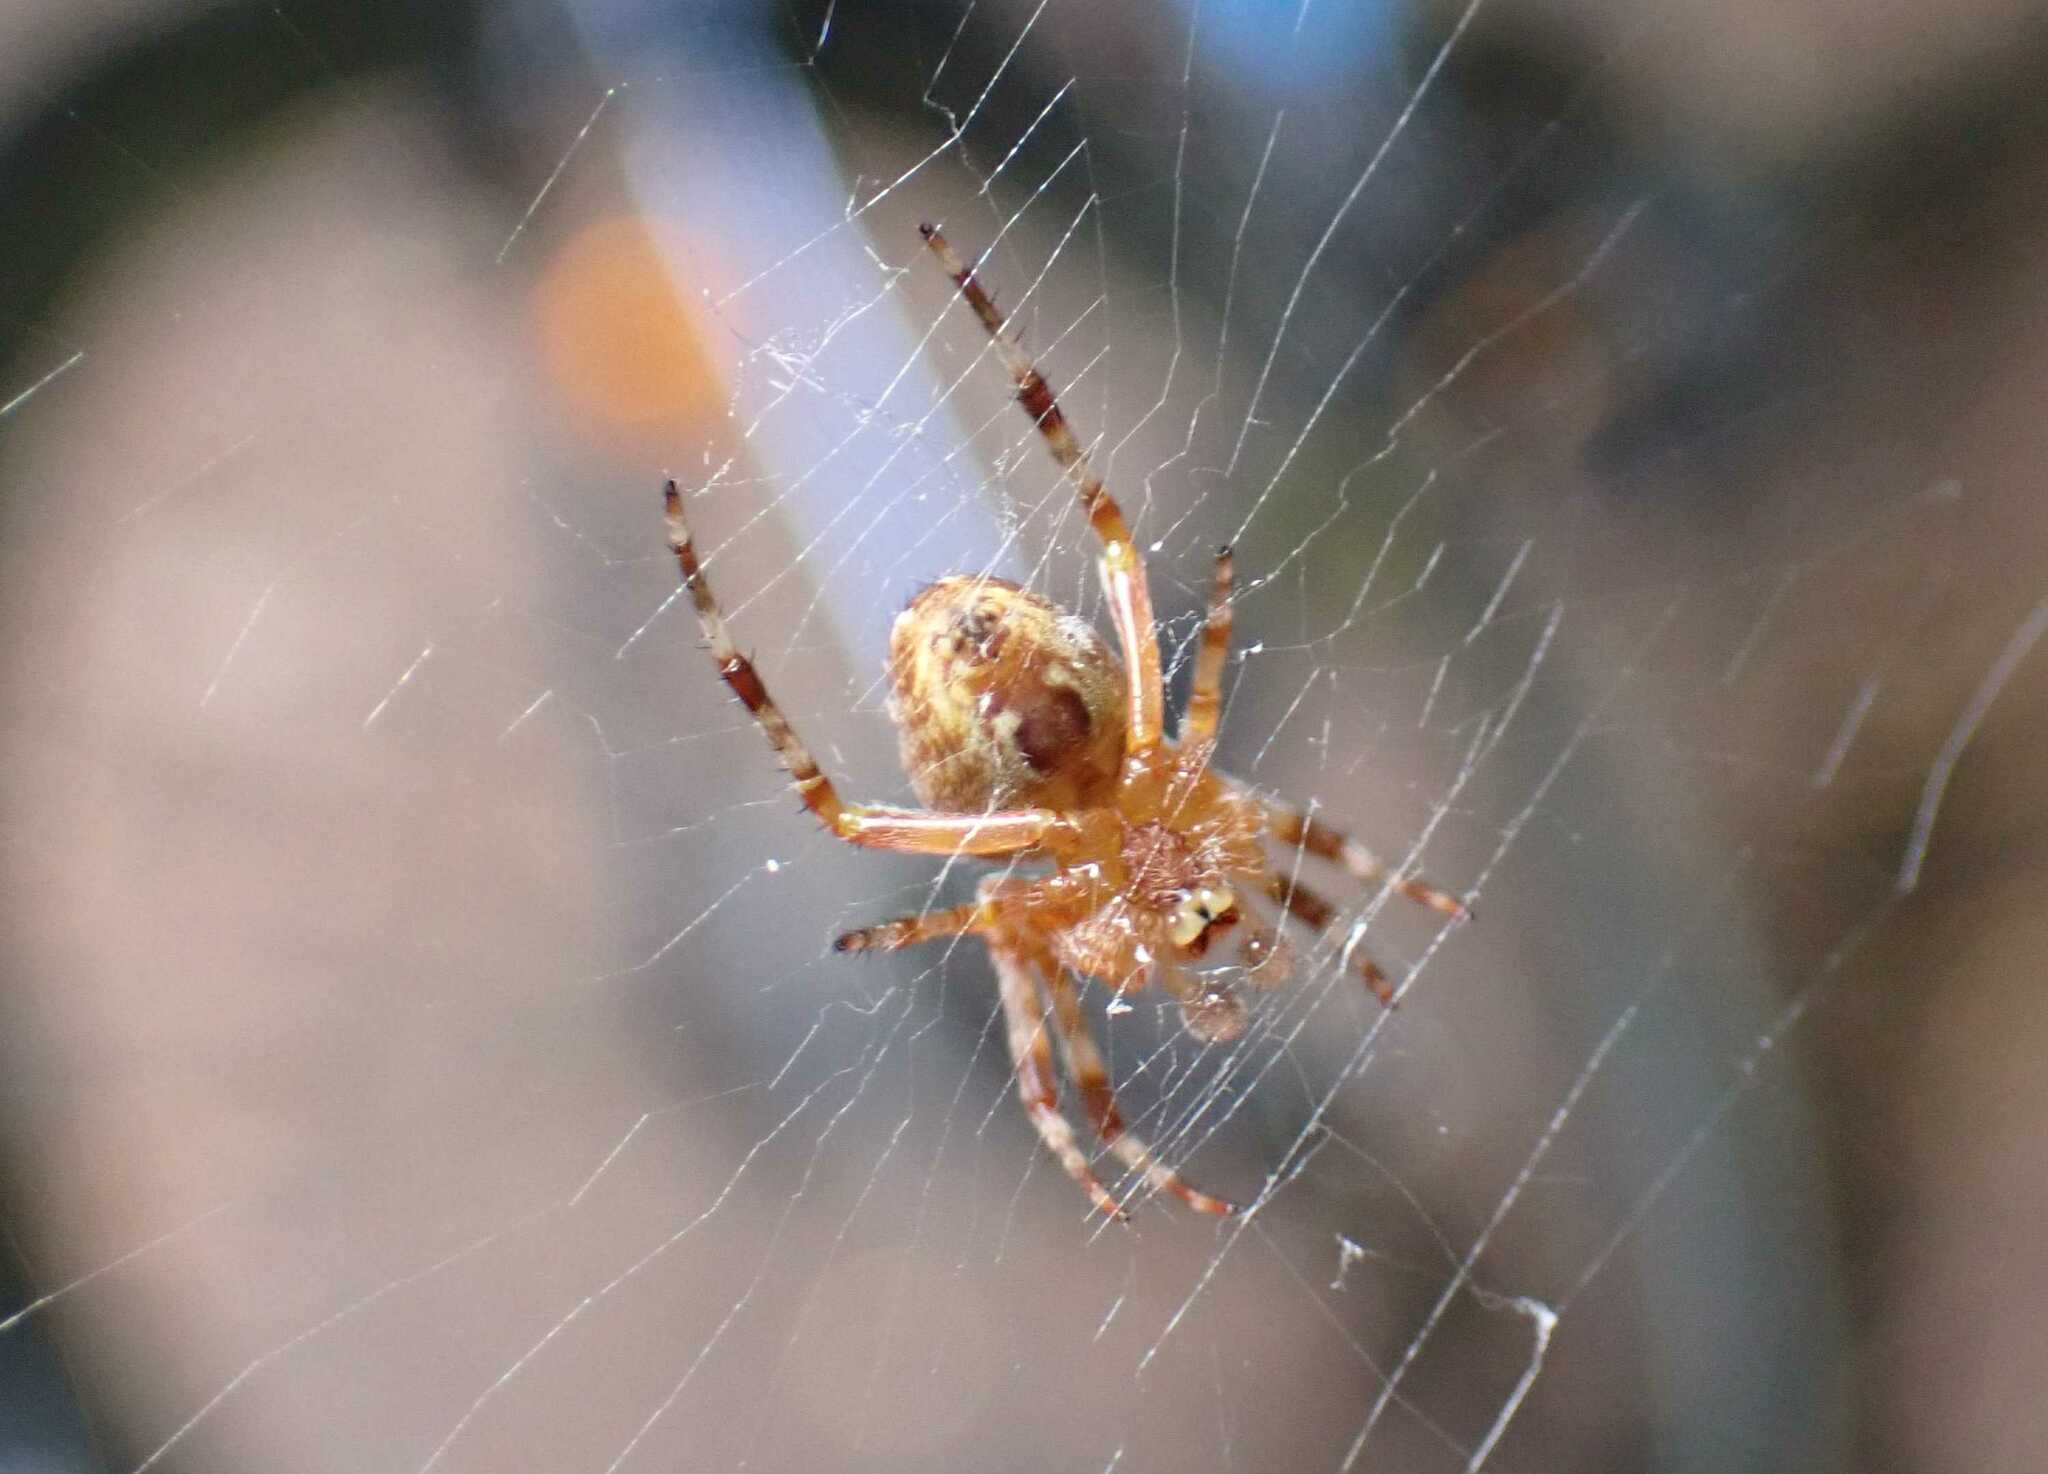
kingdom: Animalia
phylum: Arthropoda
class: Arachnida
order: Araneae
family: Araneidae
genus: Araneus
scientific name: Araneus diadematus
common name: Cross orbweaver
